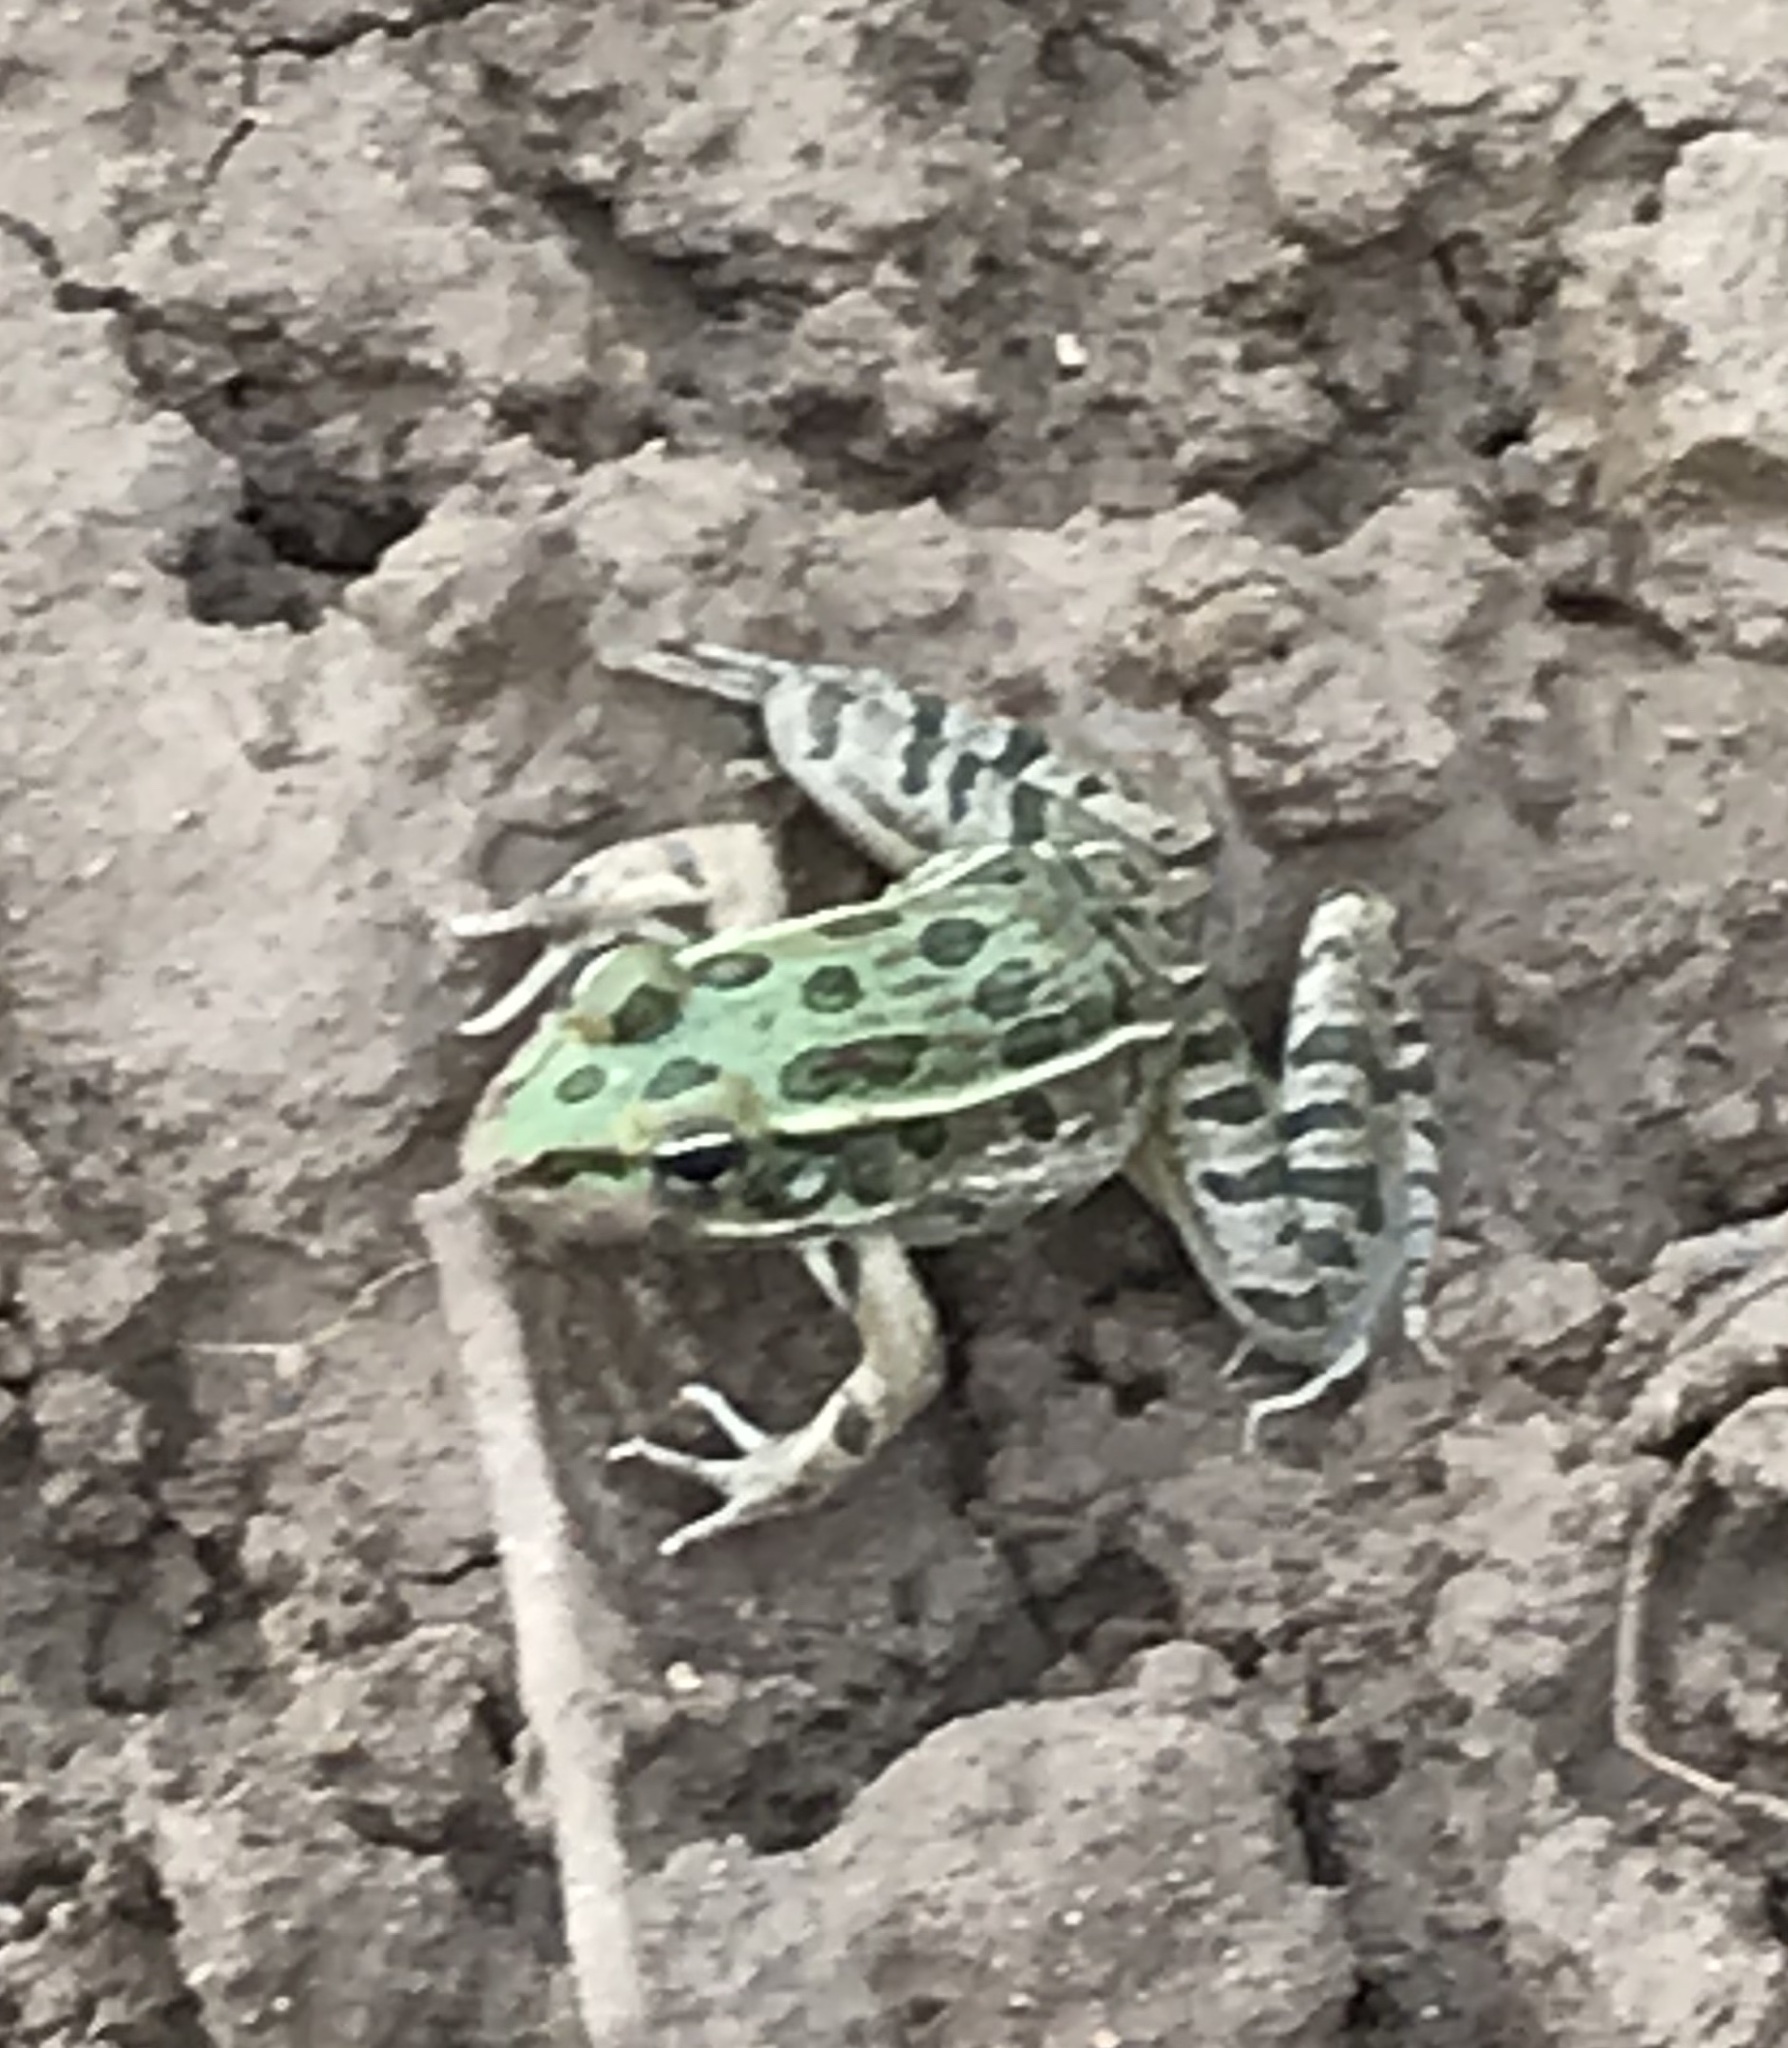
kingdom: Animalia
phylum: Chordata
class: Amphibia
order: Anura
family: Ranidae
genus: Lithobates
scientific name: Lithobates berlandieri
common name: Rio grande leopard frog
